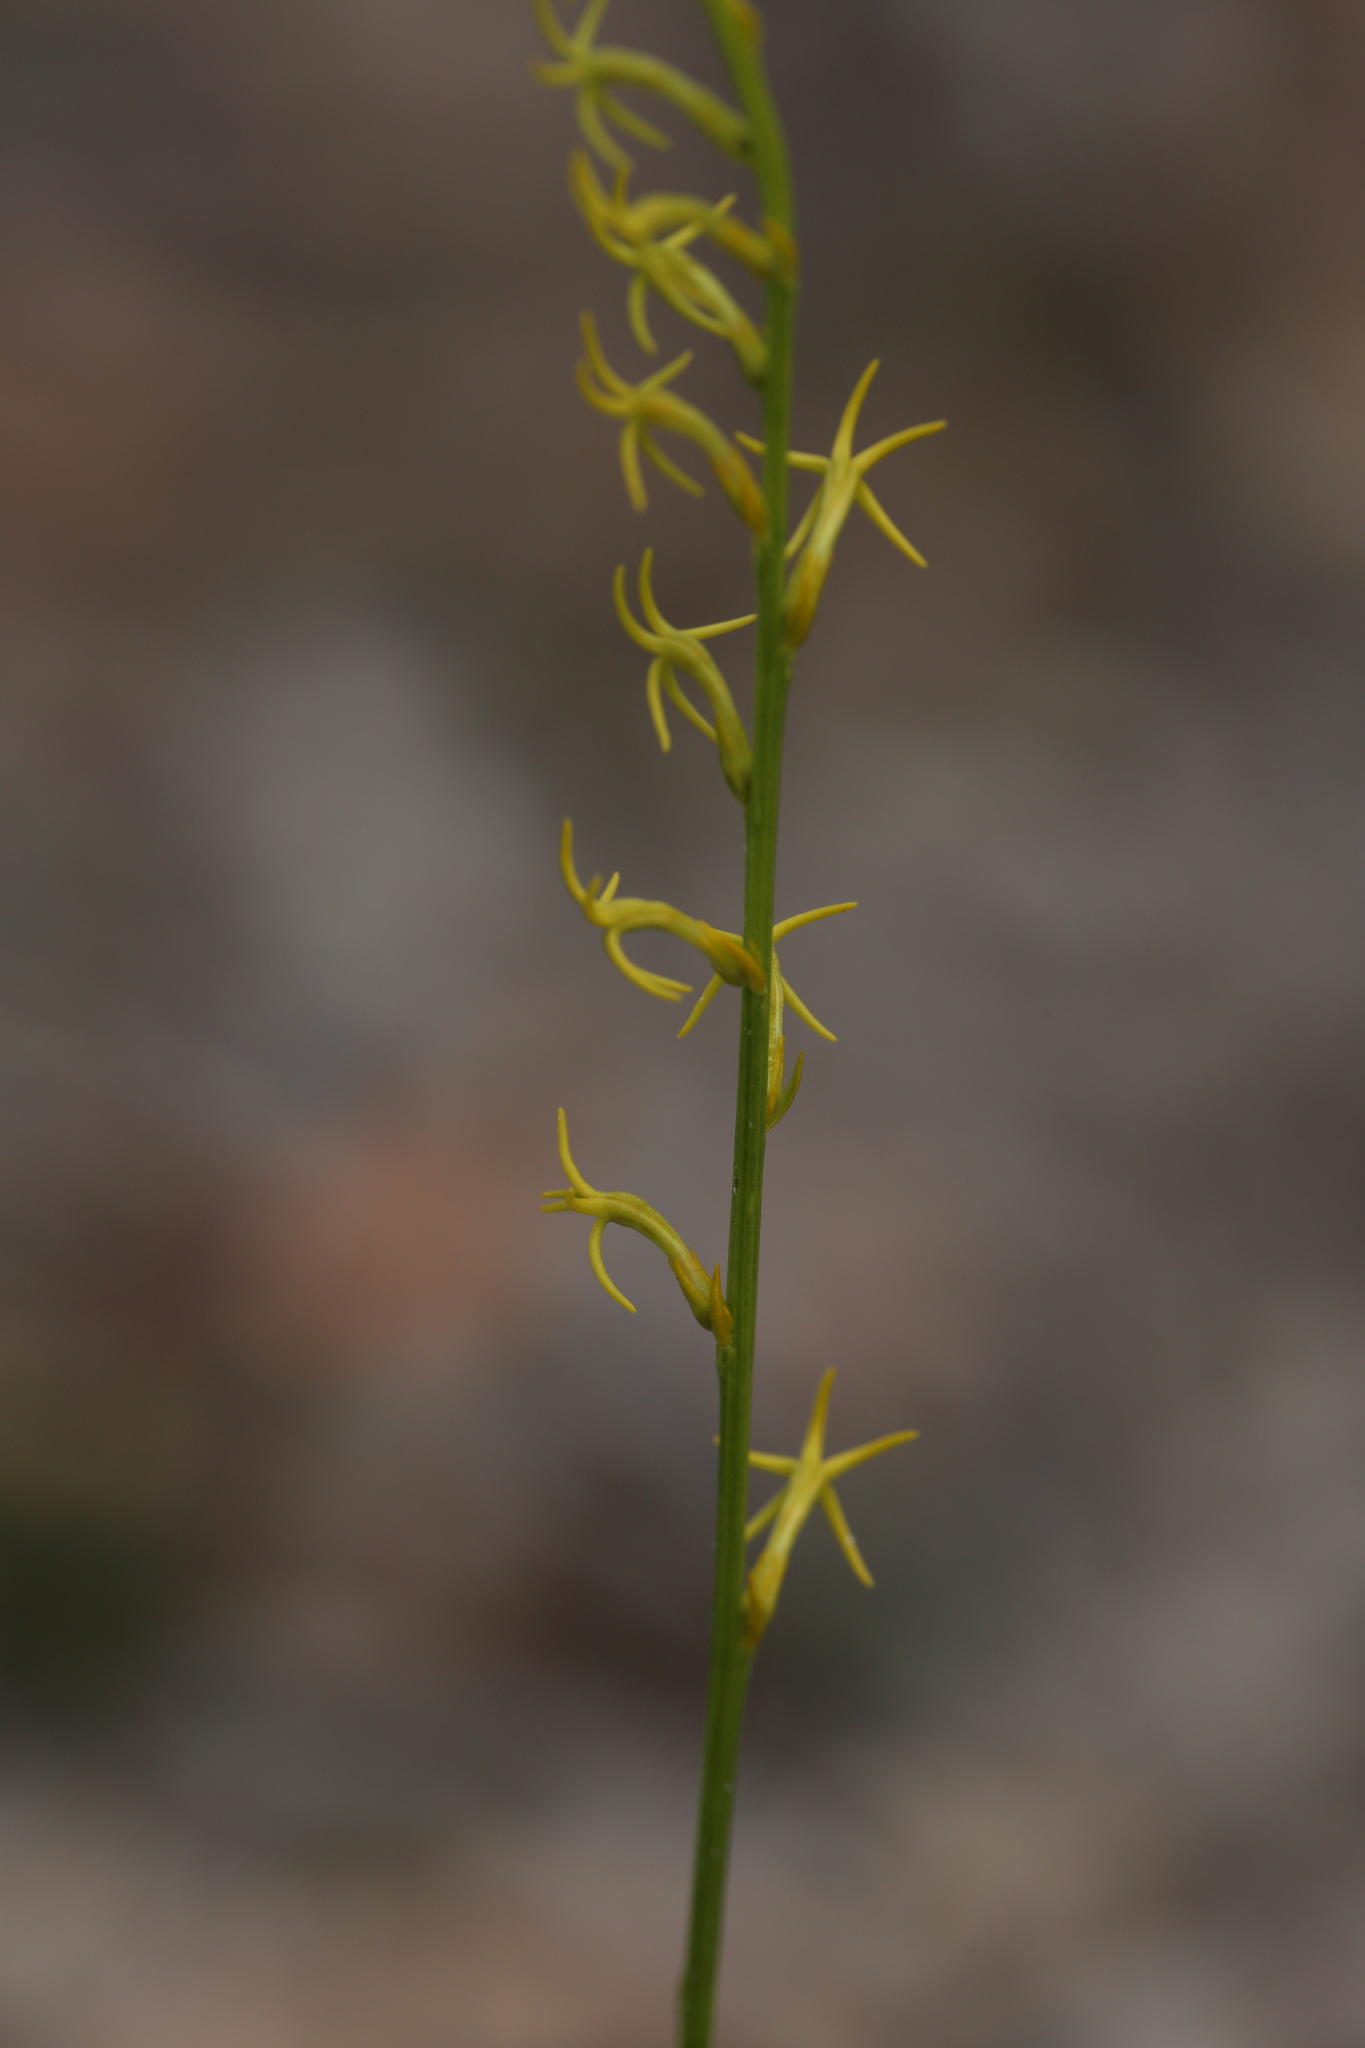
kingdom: Plantae
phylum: Tracheophyta
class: Magnoliopsida
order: Celastrales
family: Celastraceae
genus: Tripterococcus
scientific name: Tripterococcus brunonis
